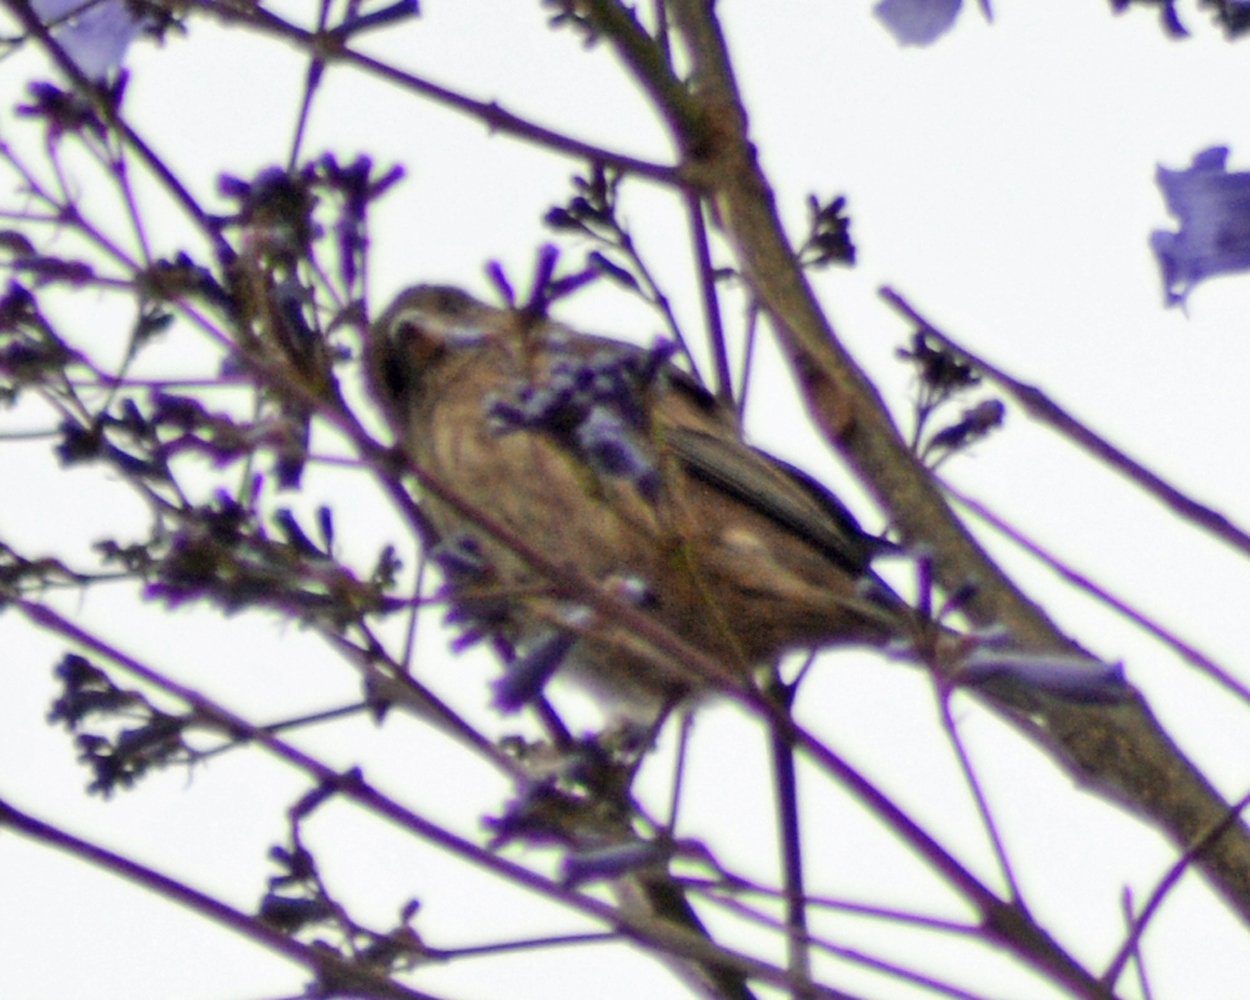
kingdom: Animalia
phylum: Chordata
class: Aves
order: Passeriformes
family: Fringillidae
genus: Haemorhous
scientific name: Haemorhous mexicanus
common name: House finch
